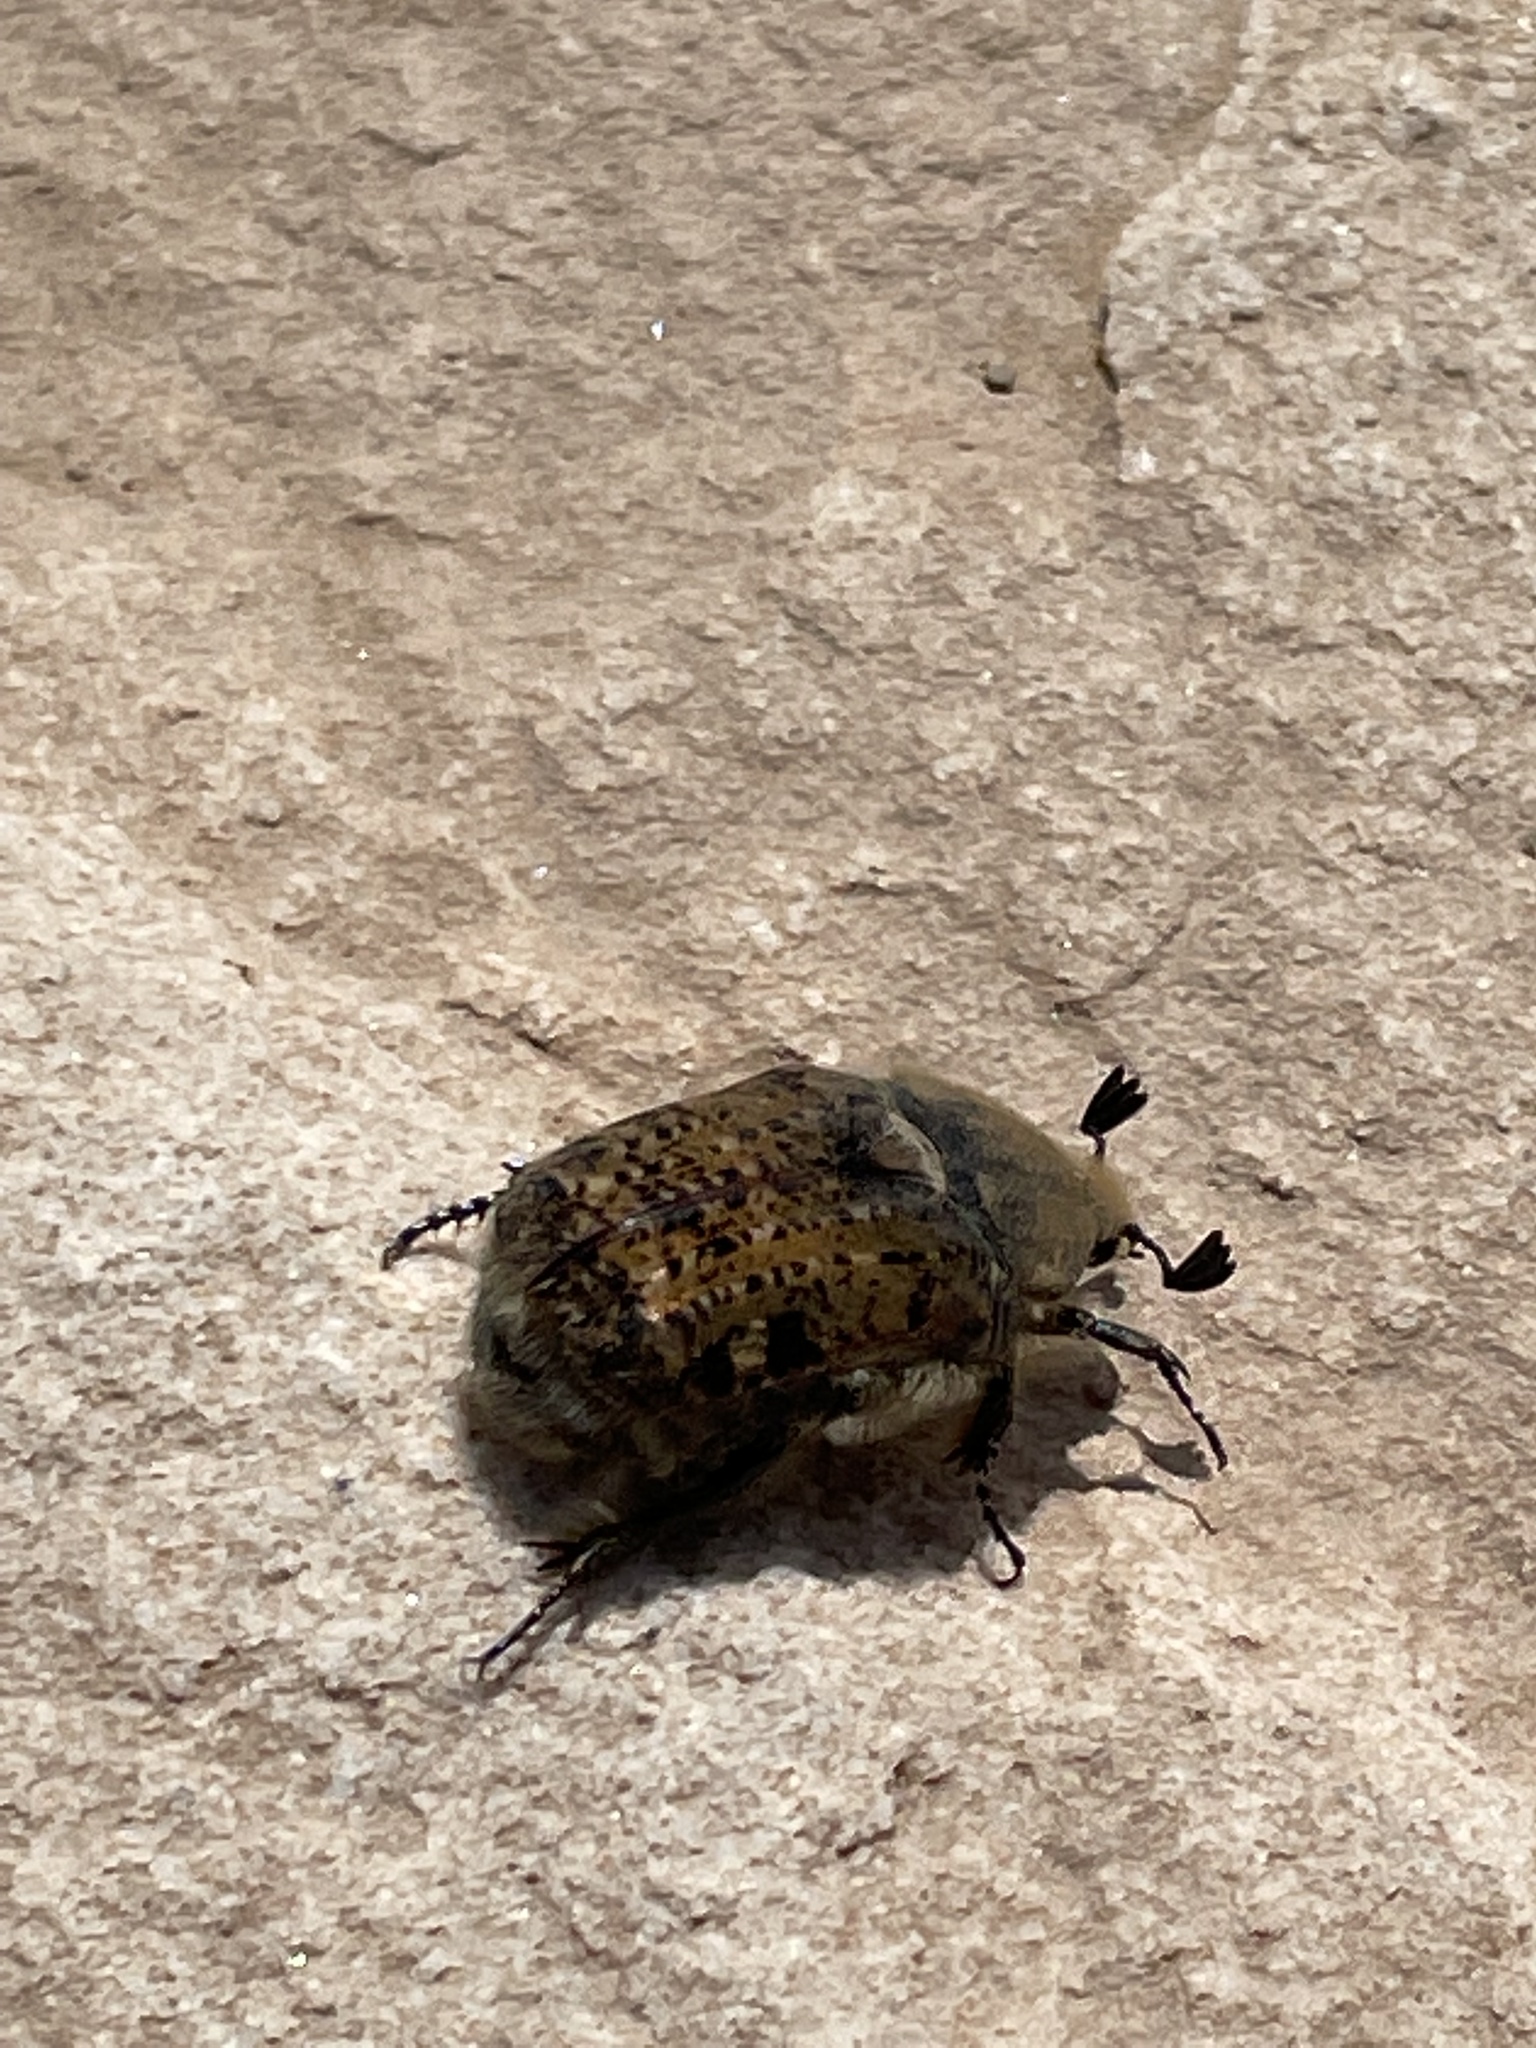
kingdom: Animalia
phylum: Arthropoda
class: Insecta
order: Coleoptera
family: Scarabaeidae
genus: Euphoria
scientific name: Euphoria inda
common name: Bumble flower beetle
